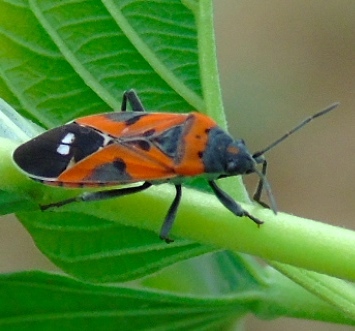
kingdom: Animalia
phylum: Arthropoda
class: Insecta
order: Hemiptera
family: Lygaeidae
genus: Lygaeus
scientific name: Lygaeus reclivatus
